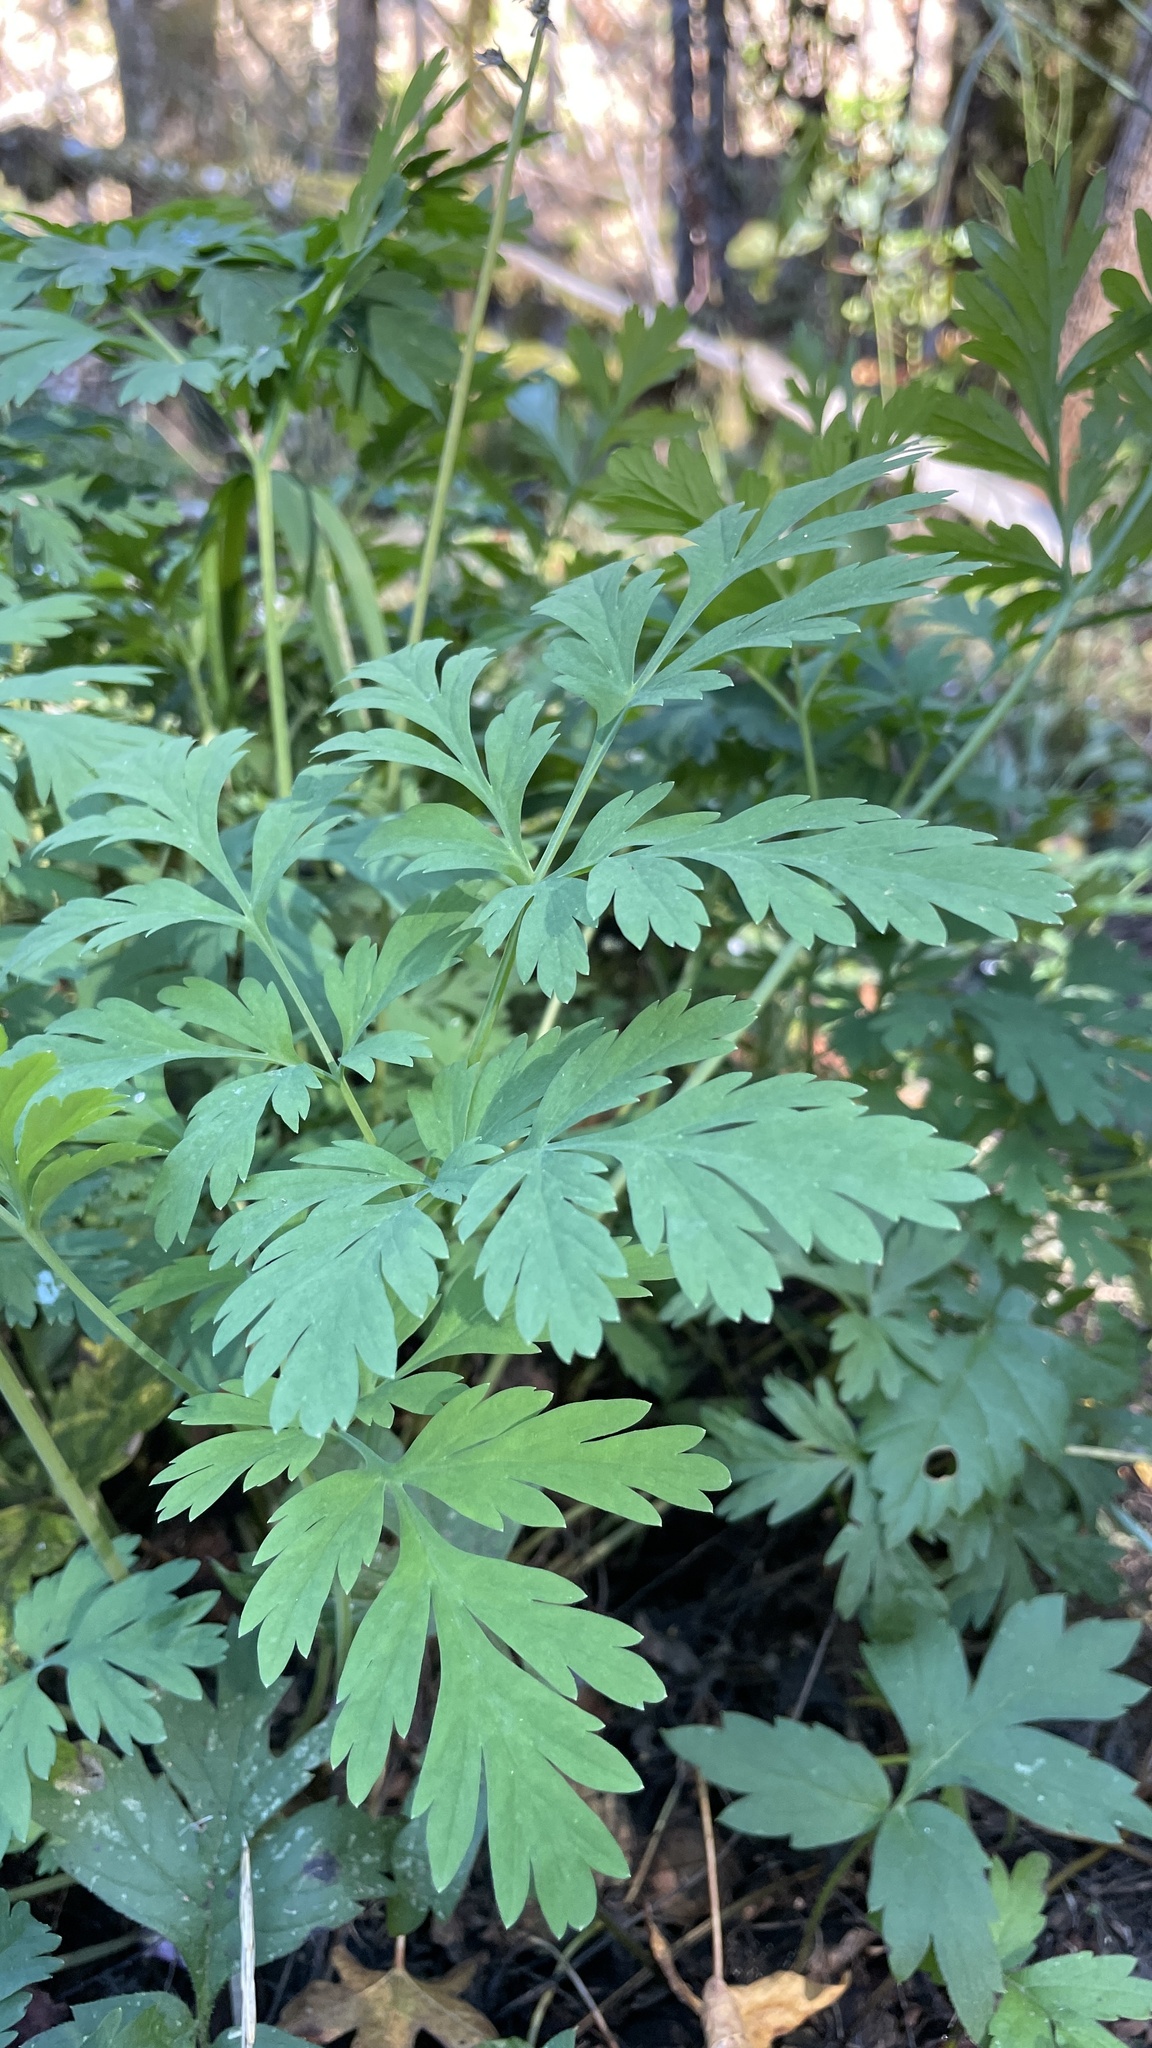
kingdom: Plantae
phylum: Tracheophyta
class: Magnoliopsida
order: Ranunculales
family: Papaveraceae
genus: Dicentra
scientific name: Dicentra formosa
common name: Bleeding-heart
